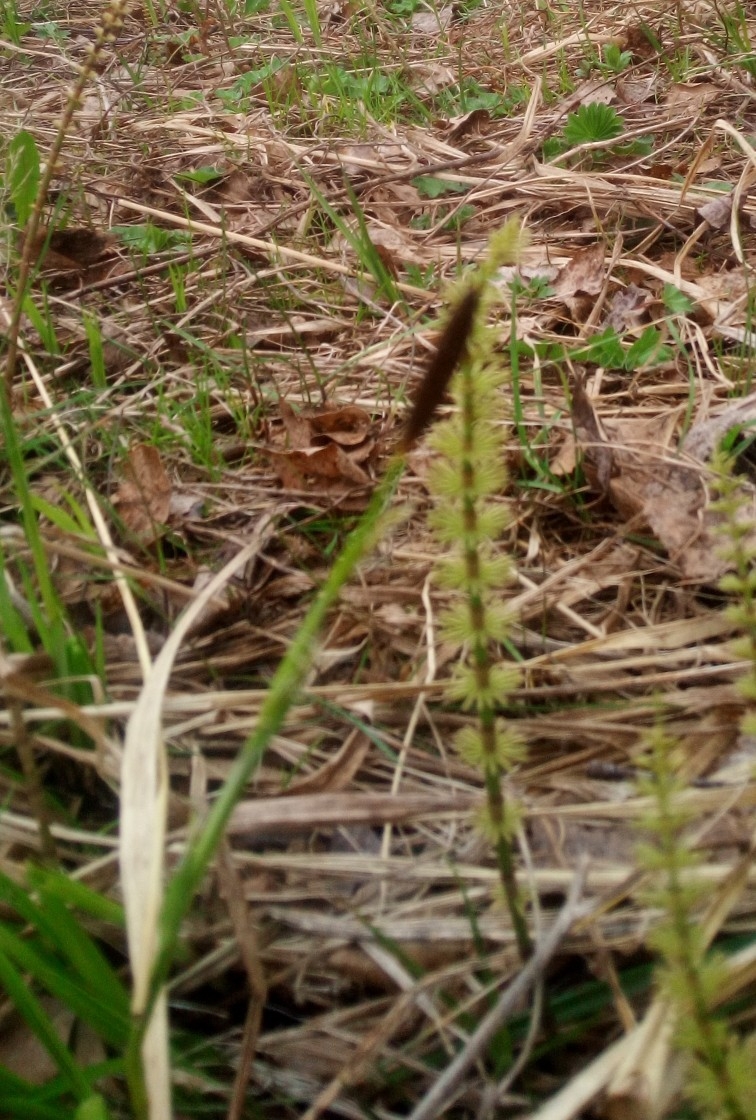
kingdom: Plantae
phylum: Tracheophyta
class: Liliopsida
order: Poales
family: Cyperaceae
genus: Carex
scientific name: Carex pilosa
